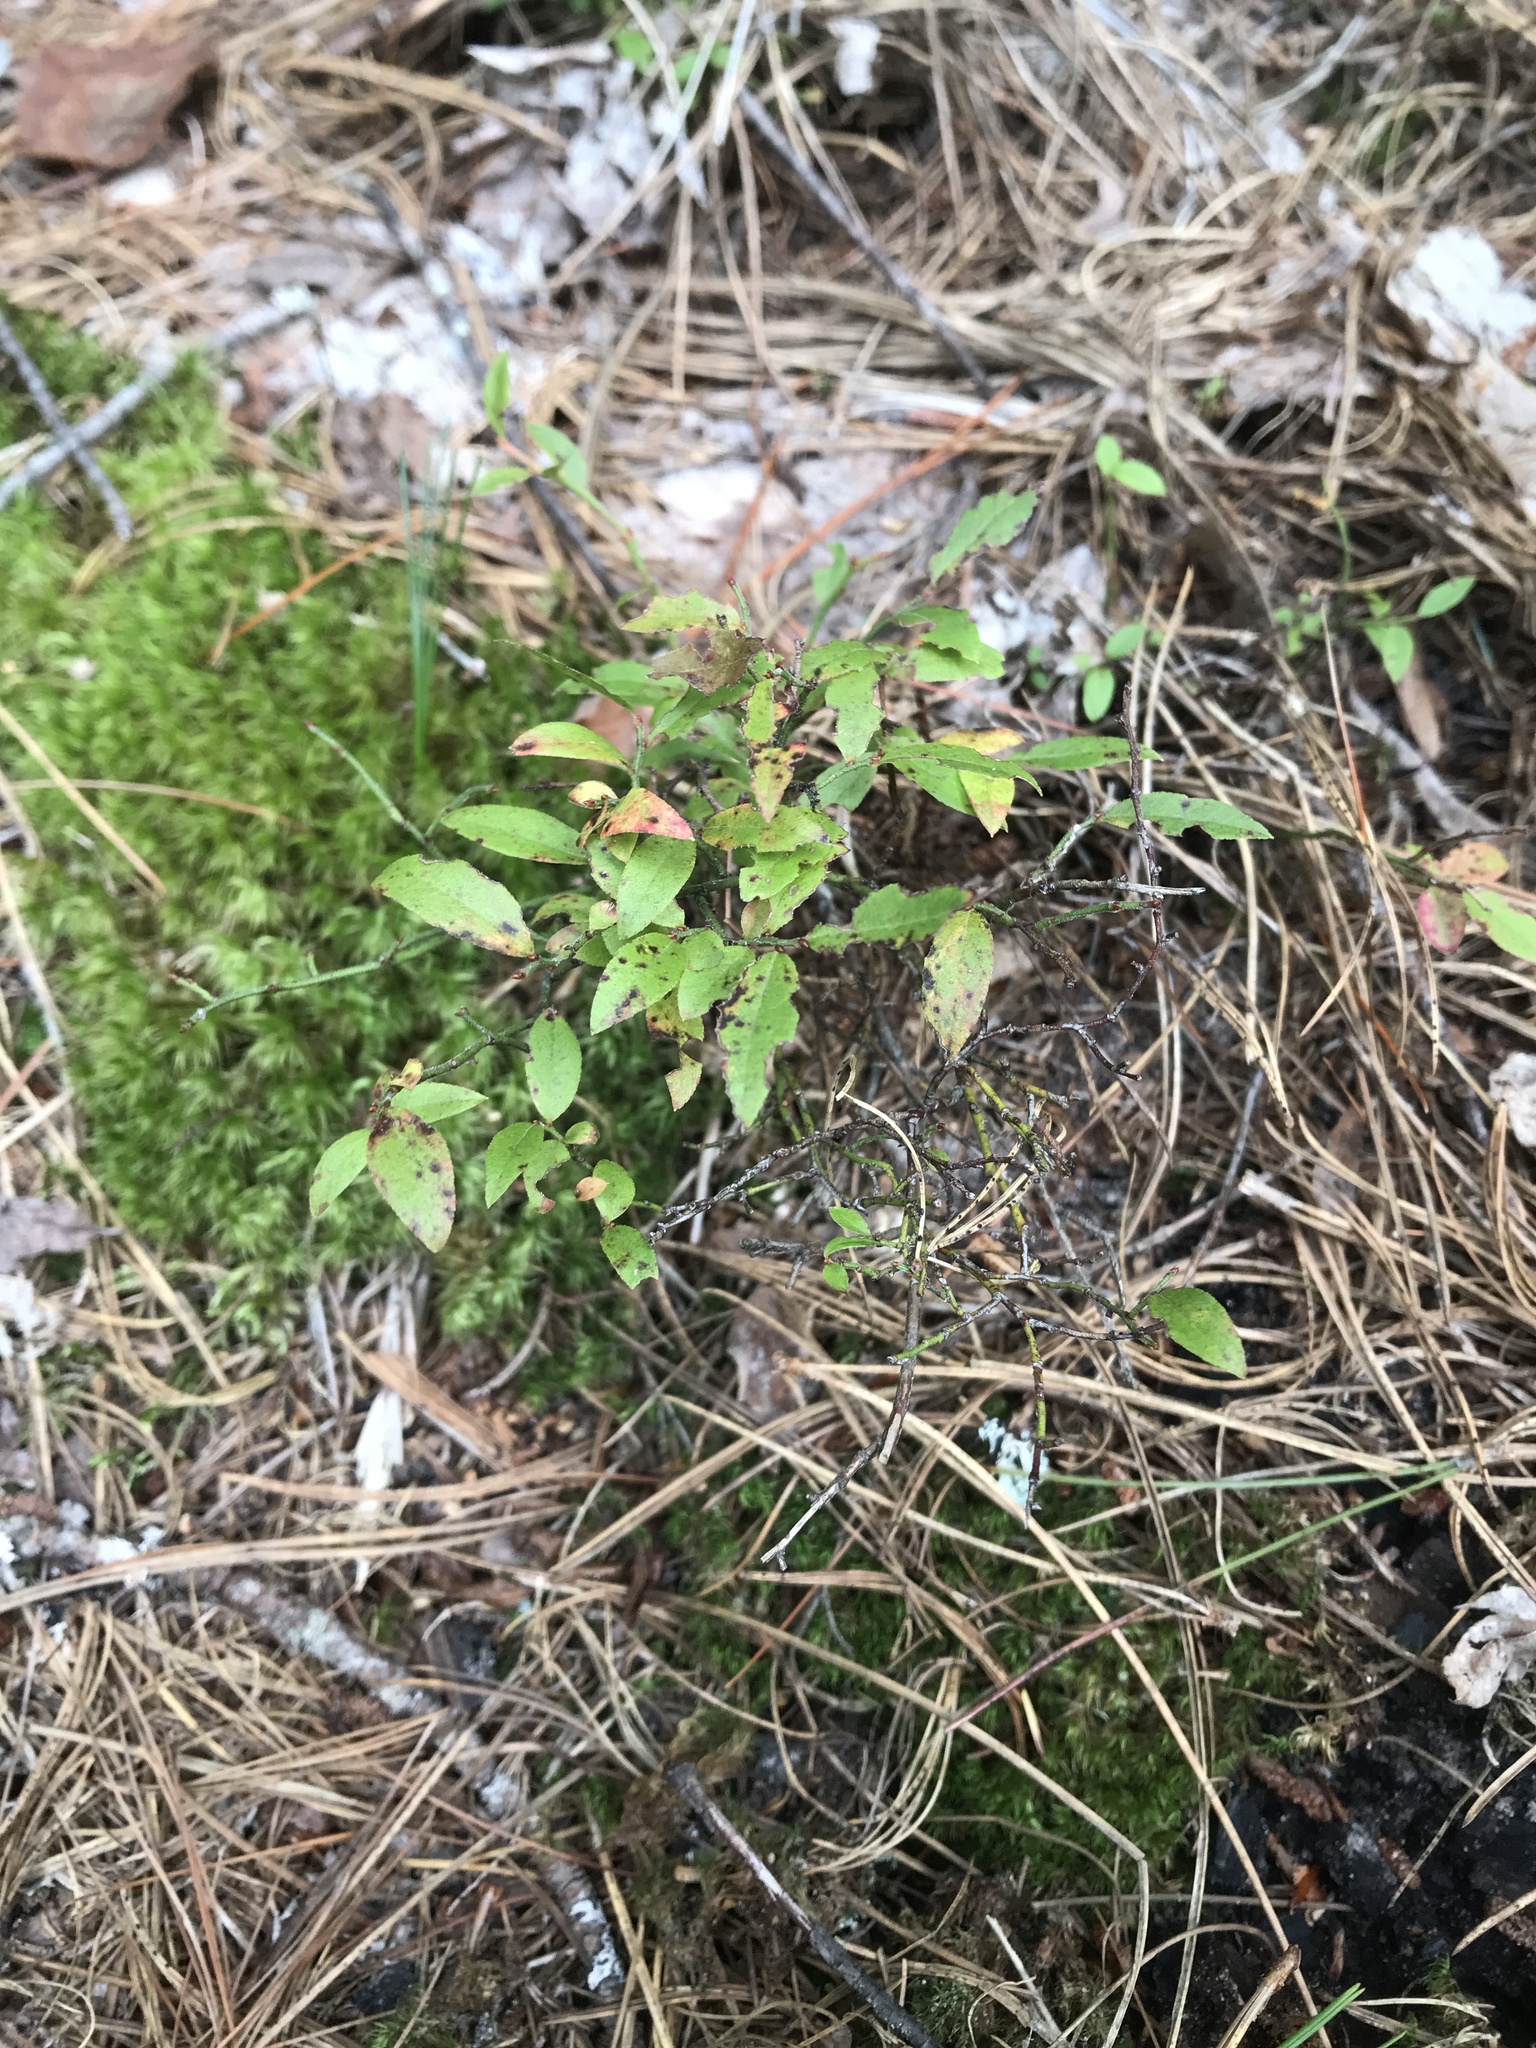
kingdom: Plantae
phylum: Tracheophyta
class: Magnoliopsida
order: Ericales
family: Ericaceae
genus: Vaccinium
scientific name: Vaccinium angustifolium
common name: Early lowbush blueberry
